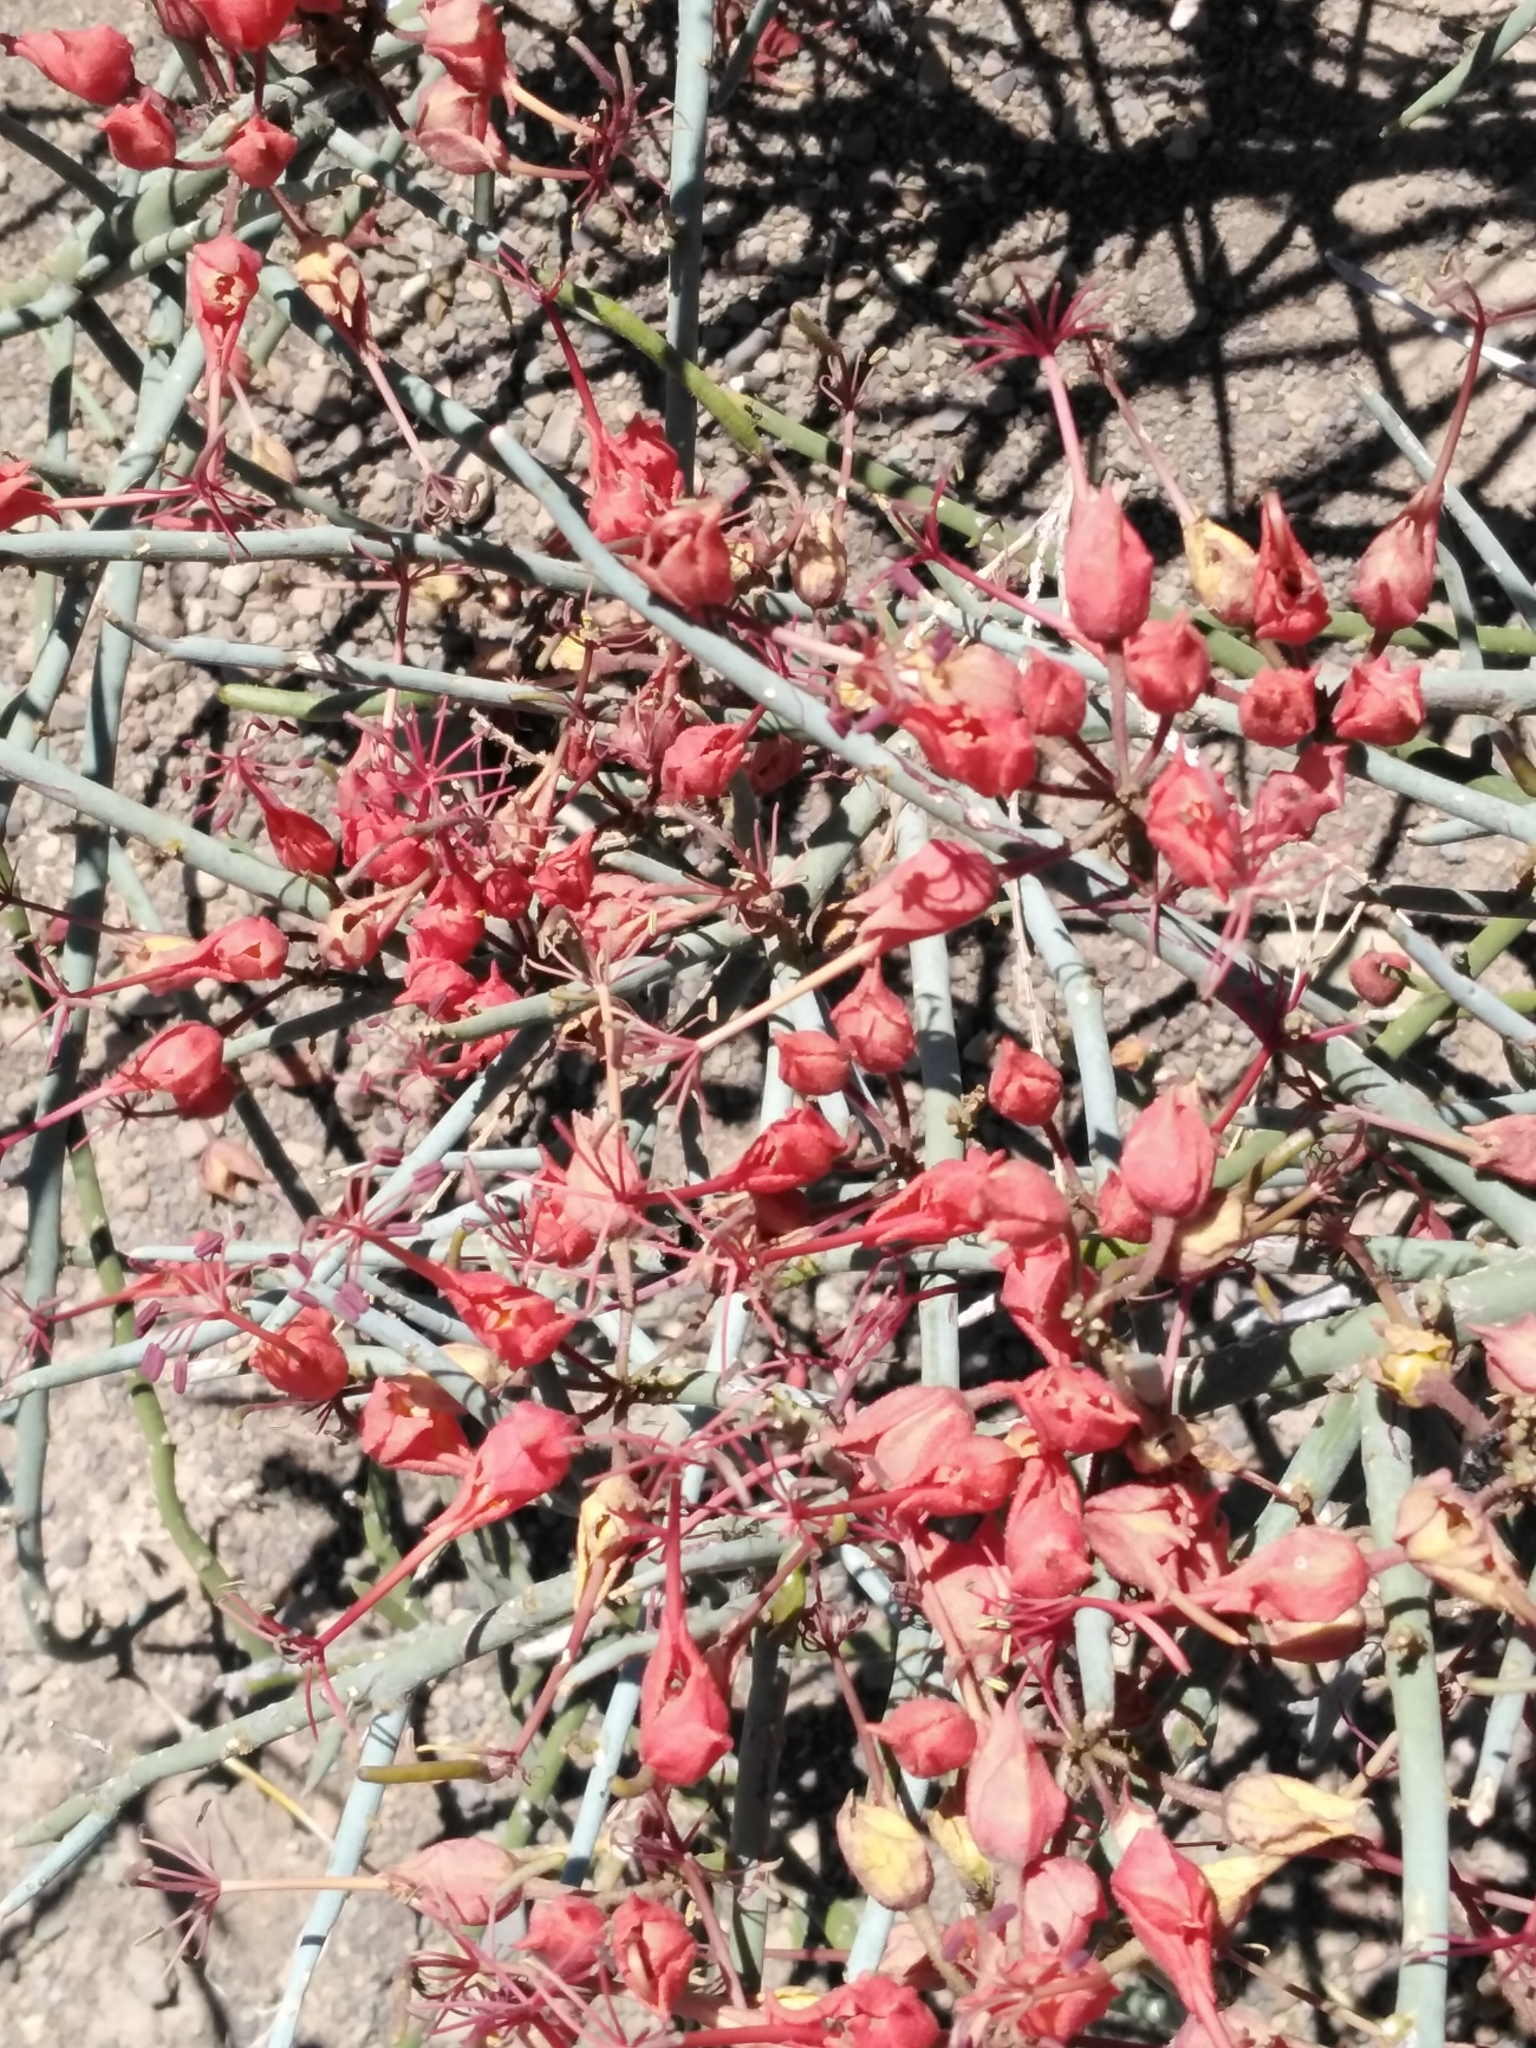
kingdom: Plantae
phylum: Tracheophyta
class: Magnoliopsida
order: Brassicales
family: Capparaceae
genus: Cadaba
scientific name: Cadaba aphylla
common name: Black storm
